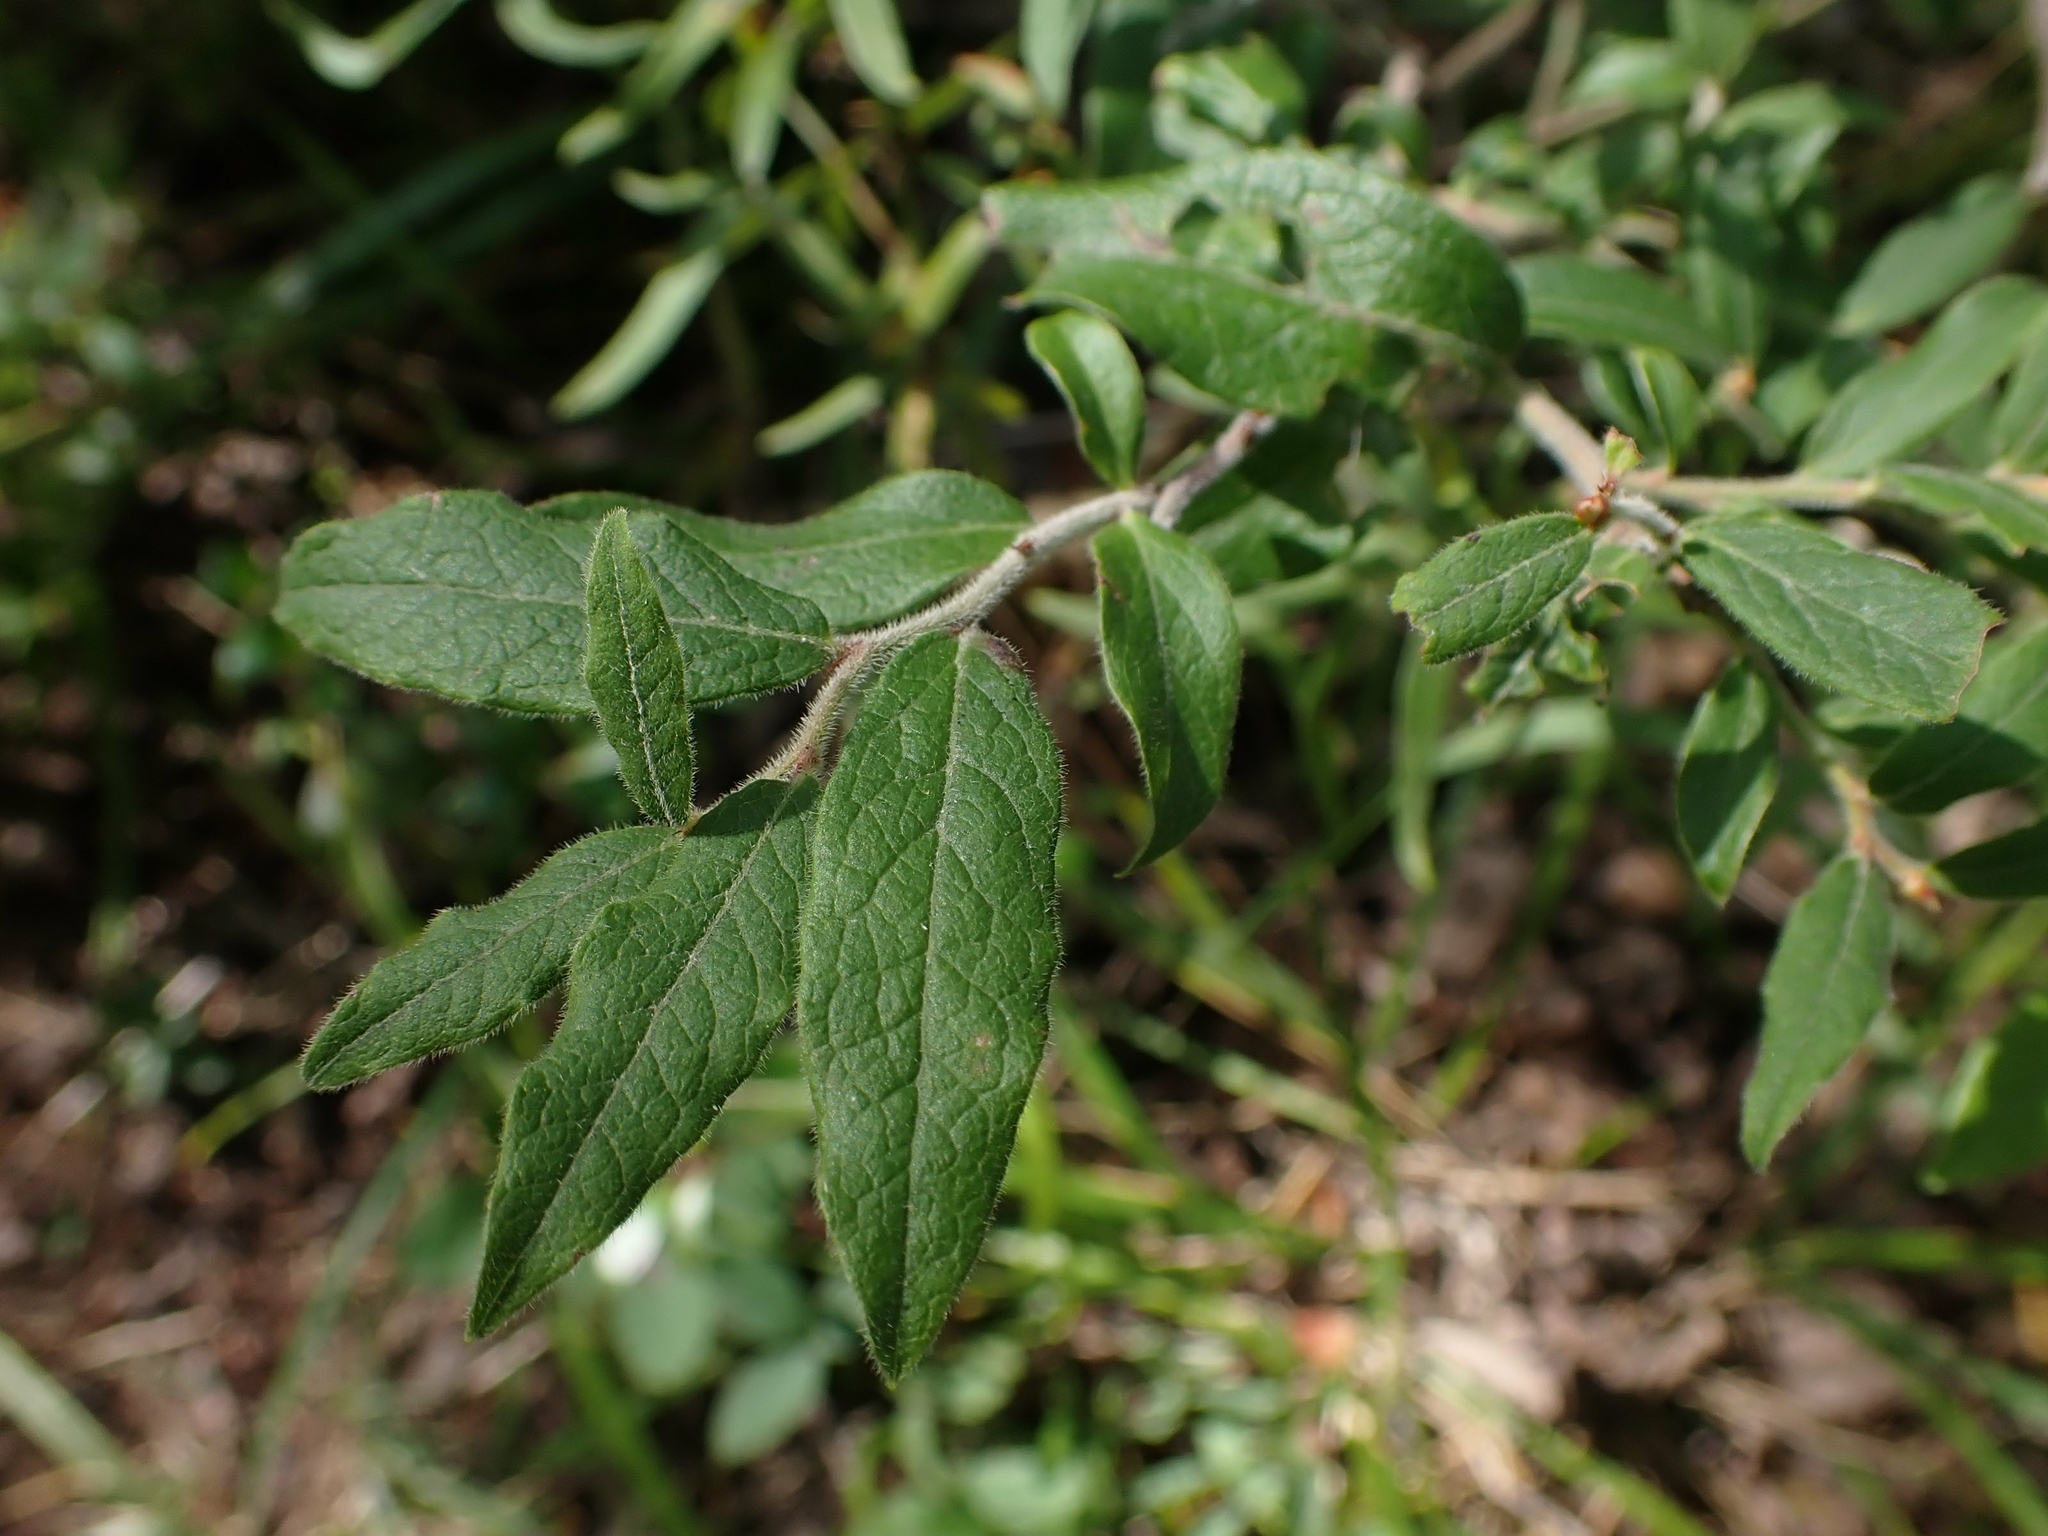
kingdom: Plantae
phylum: Tracheophyta
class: Magnoliopsida
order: Ericales
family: Ericaceae
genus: Vaccinium
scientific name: Vaccinium myrtilloides
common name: Canada blueberry
